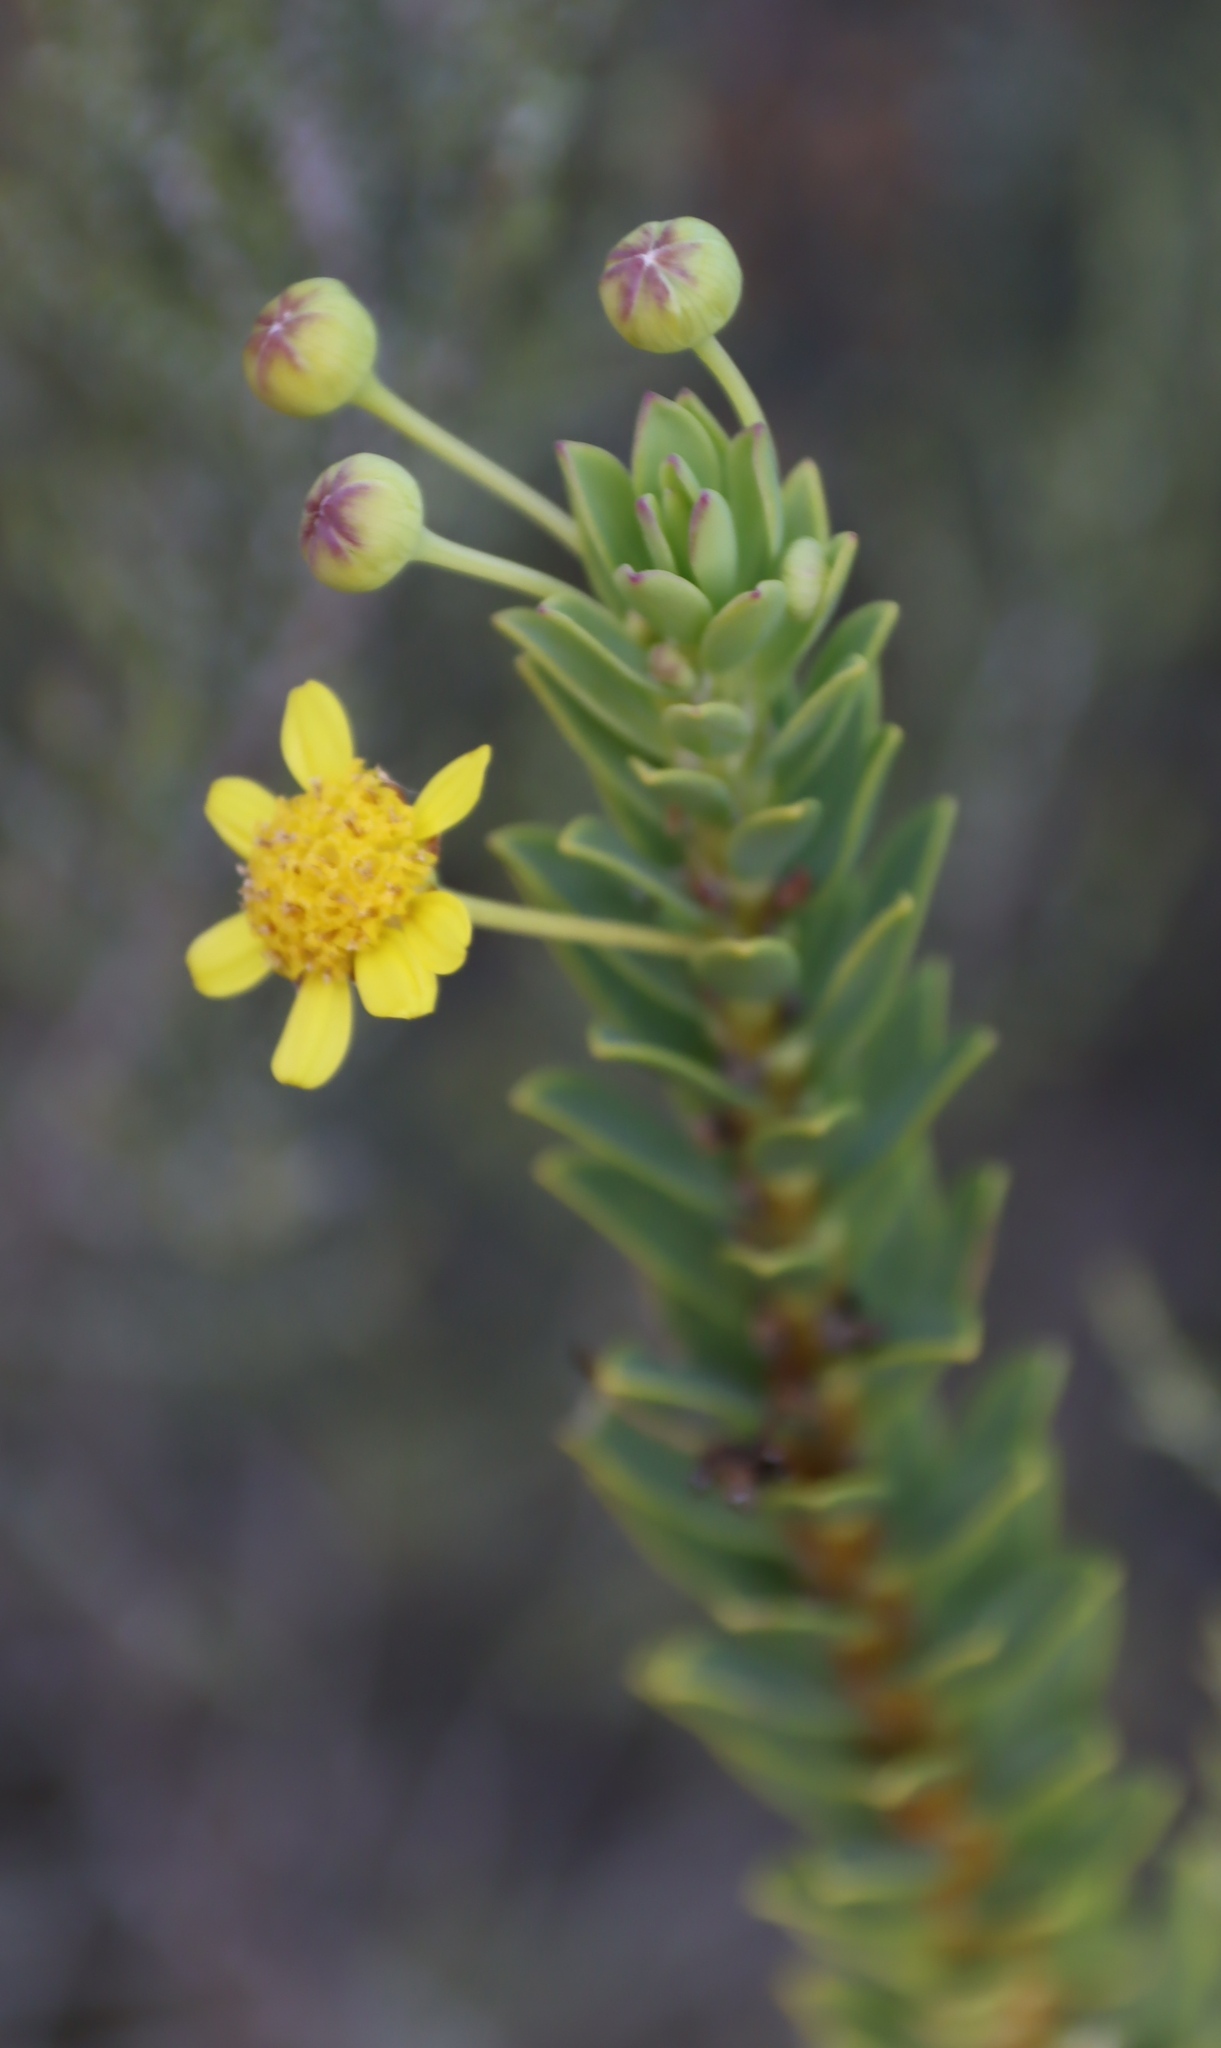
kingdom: Plantae
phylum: Tracheophyta
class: Magnoliopsida
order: Asterales
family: Asteraceae
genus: Euryops
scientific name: Euryops lateriflorus
